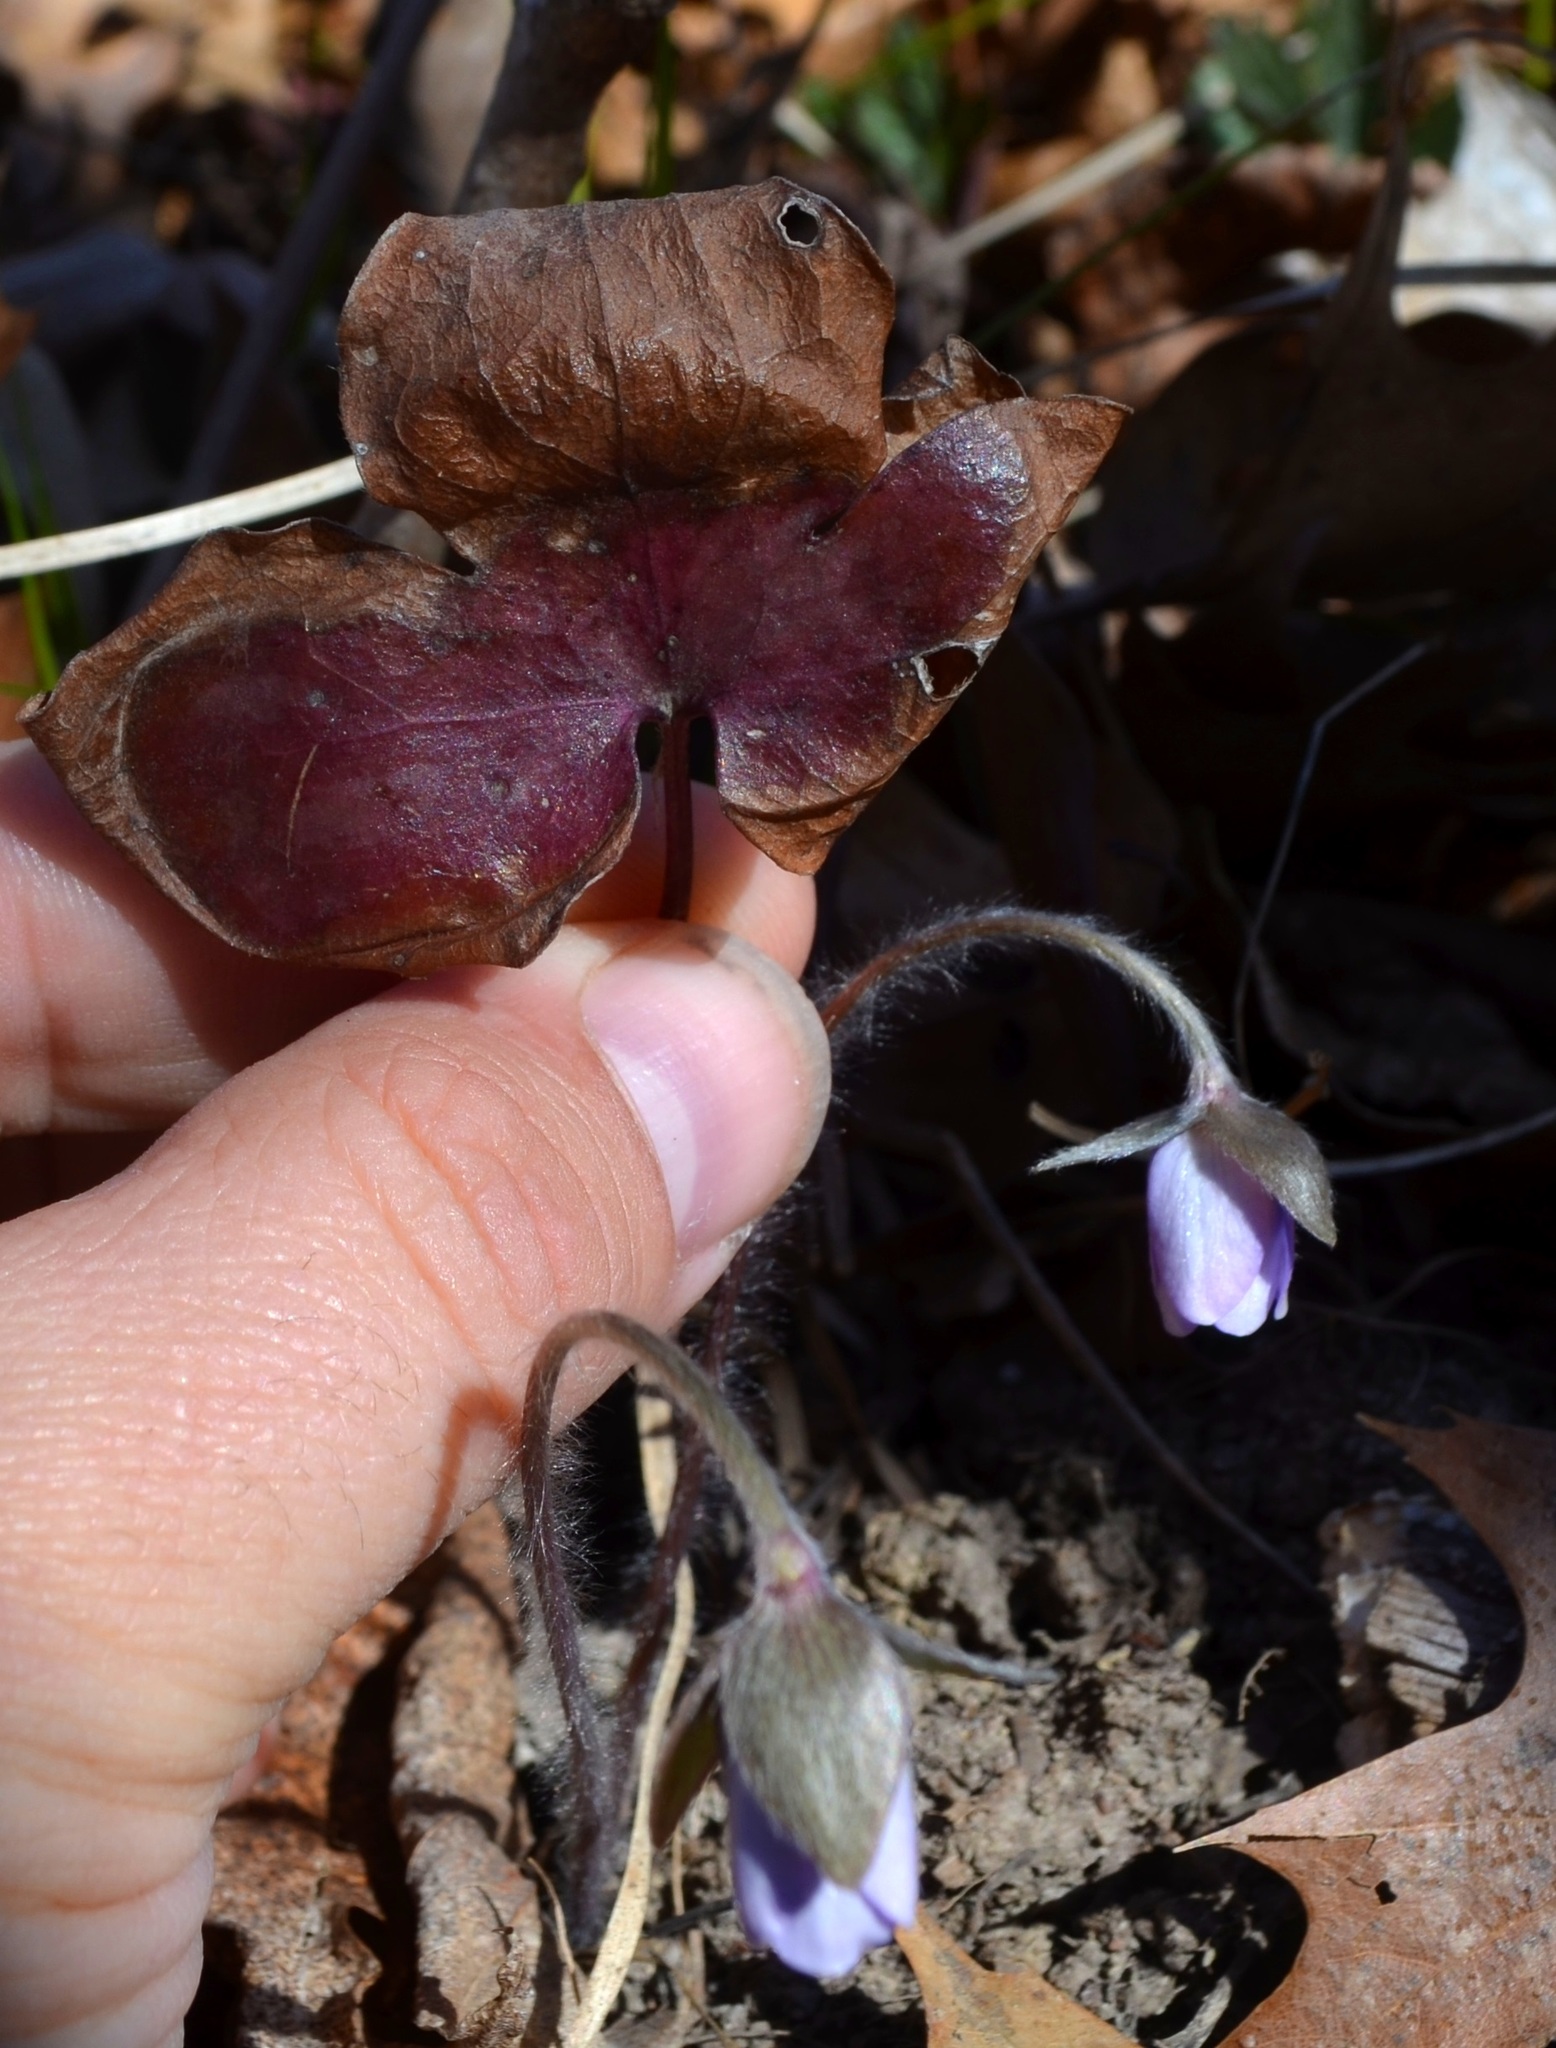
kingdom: Plantae
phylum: Tracheophyta
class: Magnoliopsida
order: Ranunculales
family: Ranunculaceae
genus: Hepatica
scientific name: Hepatica acutiloba
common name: Sharp-lobed hepatica
